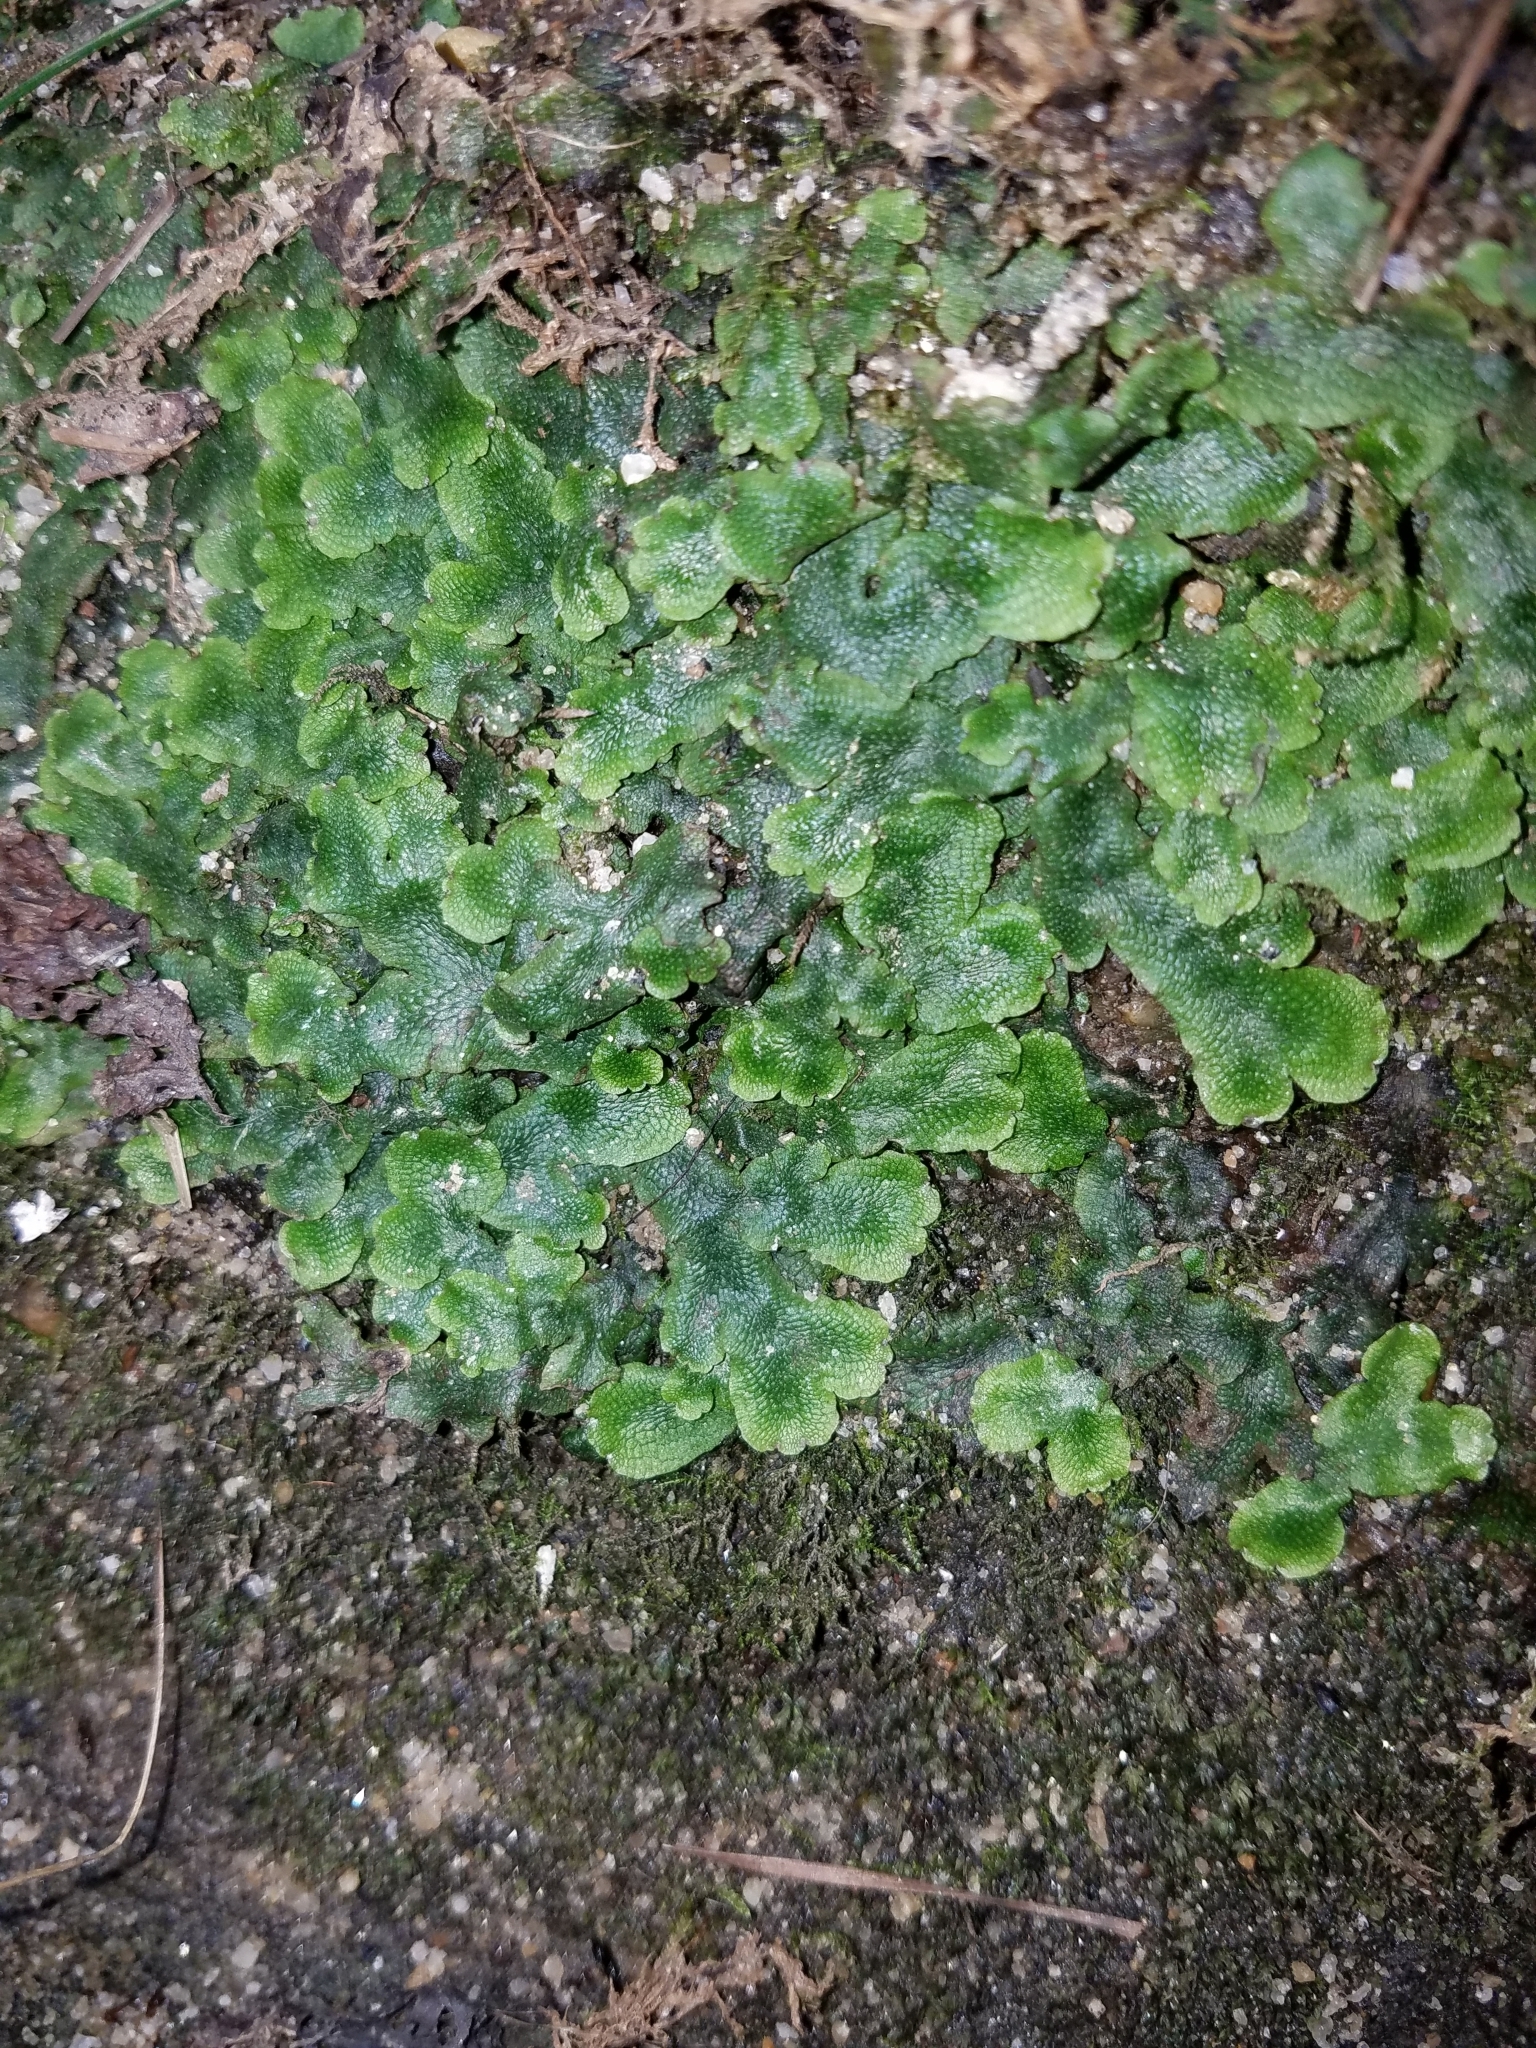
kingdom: Plantae
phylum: Marchantiophyta
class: Marchantiopsida
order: Marchantiales
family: Conocephalaceae
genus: Conocephalum
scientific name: Conocephalum salebrosum
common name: Cat-tongue liverwort
